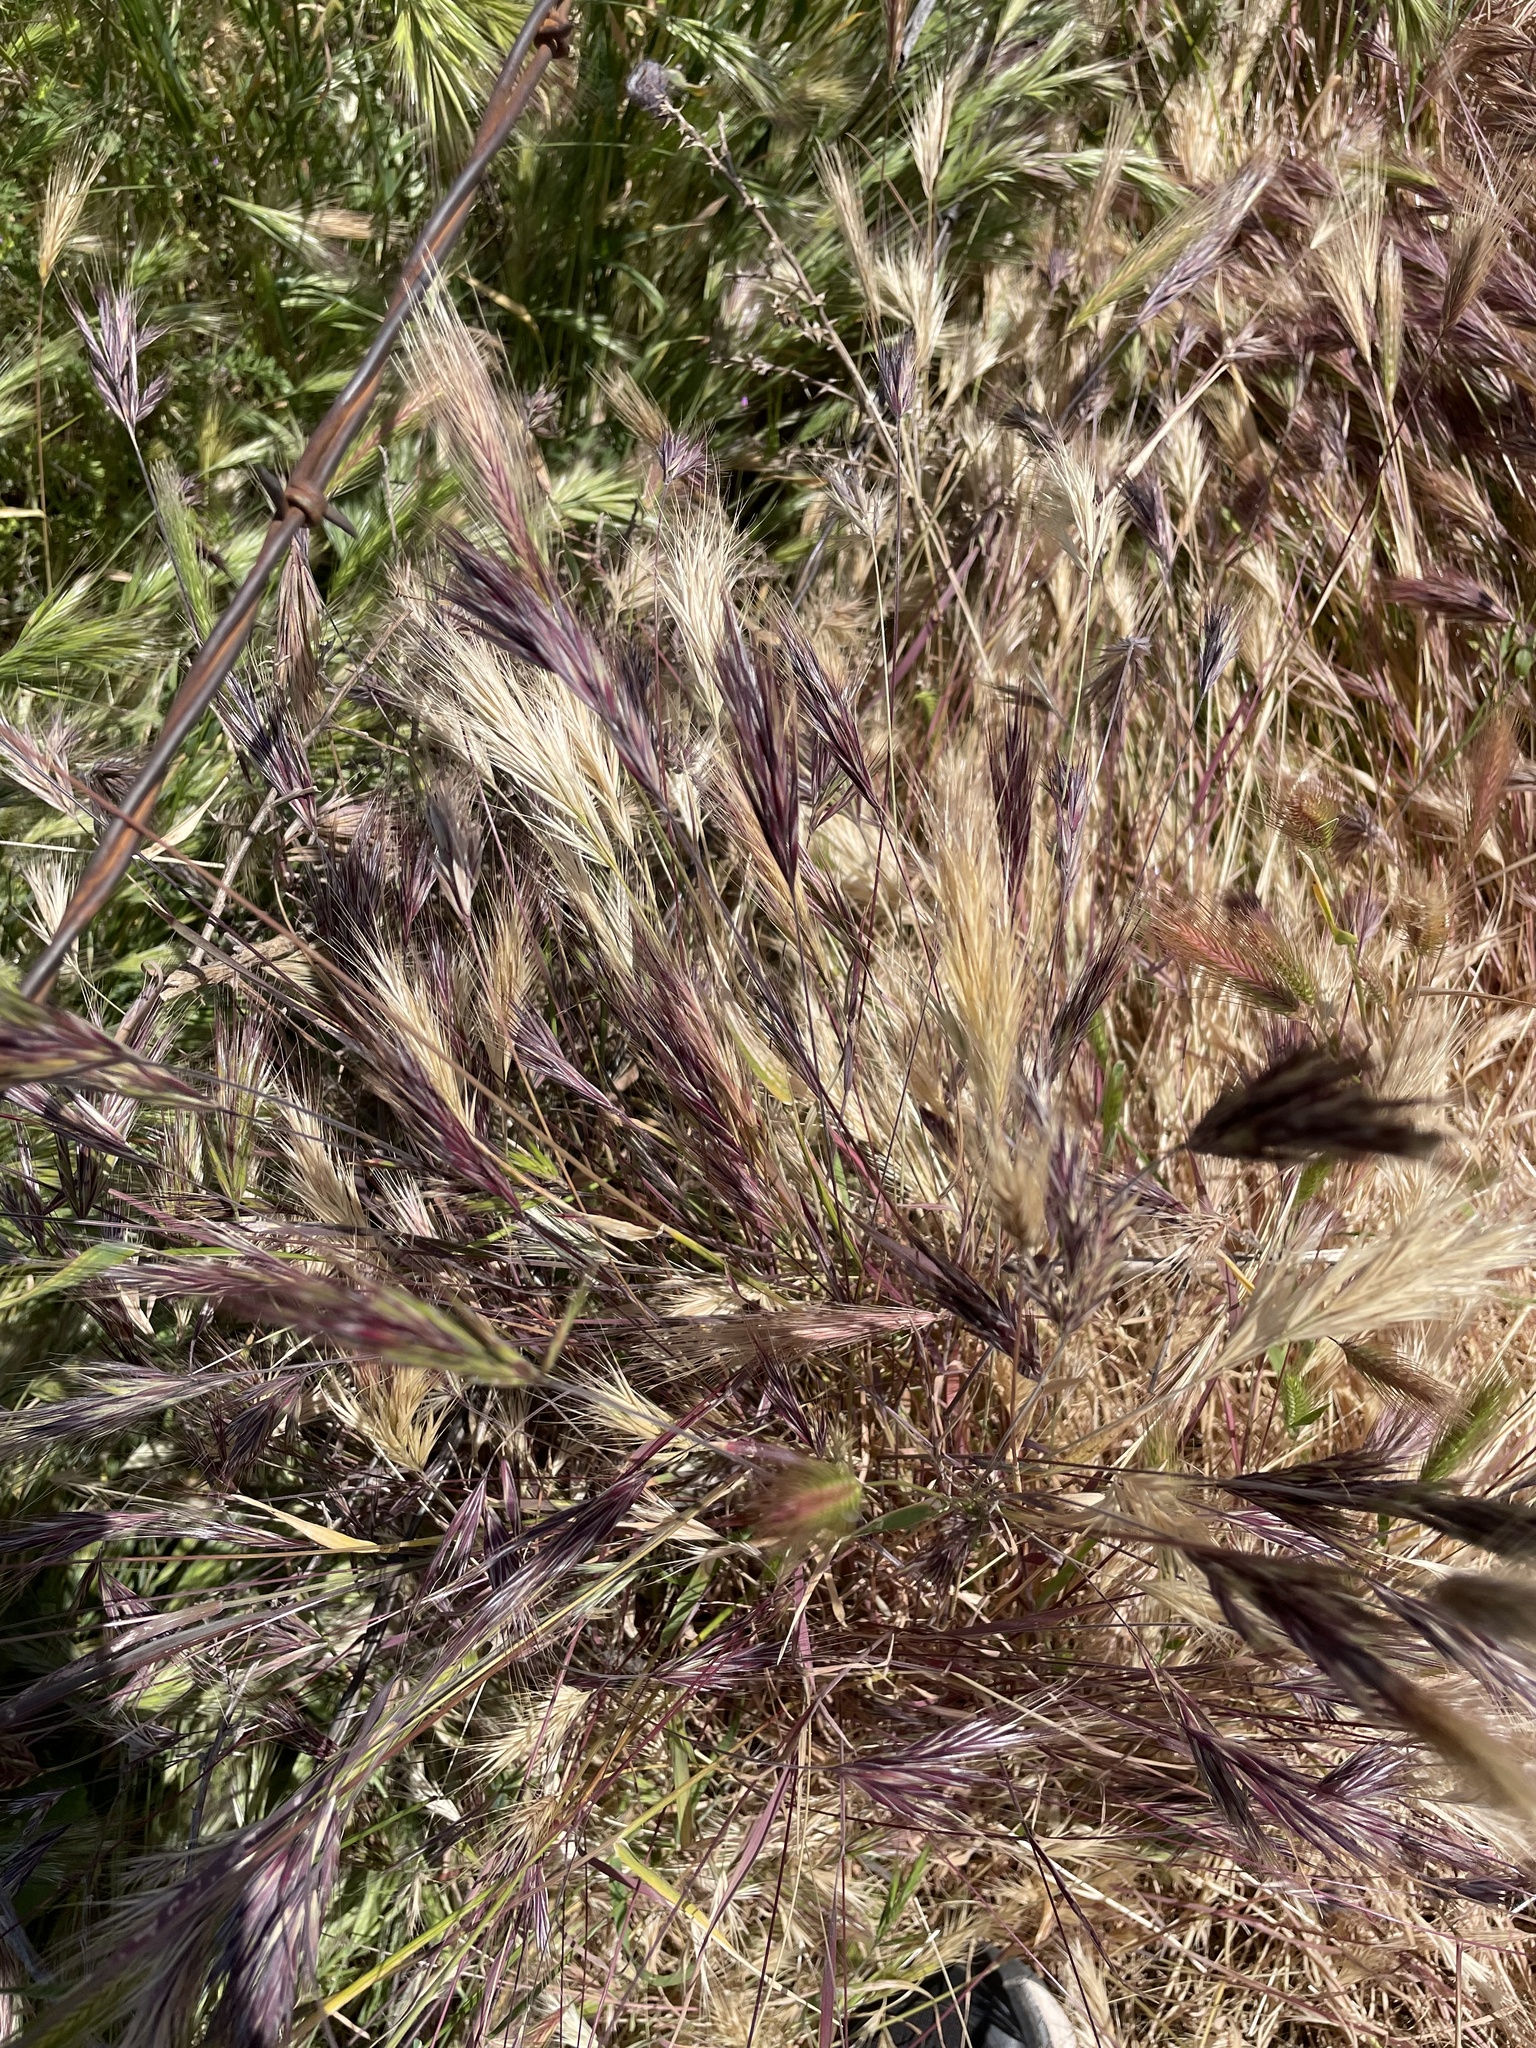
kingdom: Plantae
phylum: Tracheophyta
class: Liliopsida
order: Poales
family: Poaceae
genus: Bromus
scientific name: Bromus rubens
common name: Red brome
